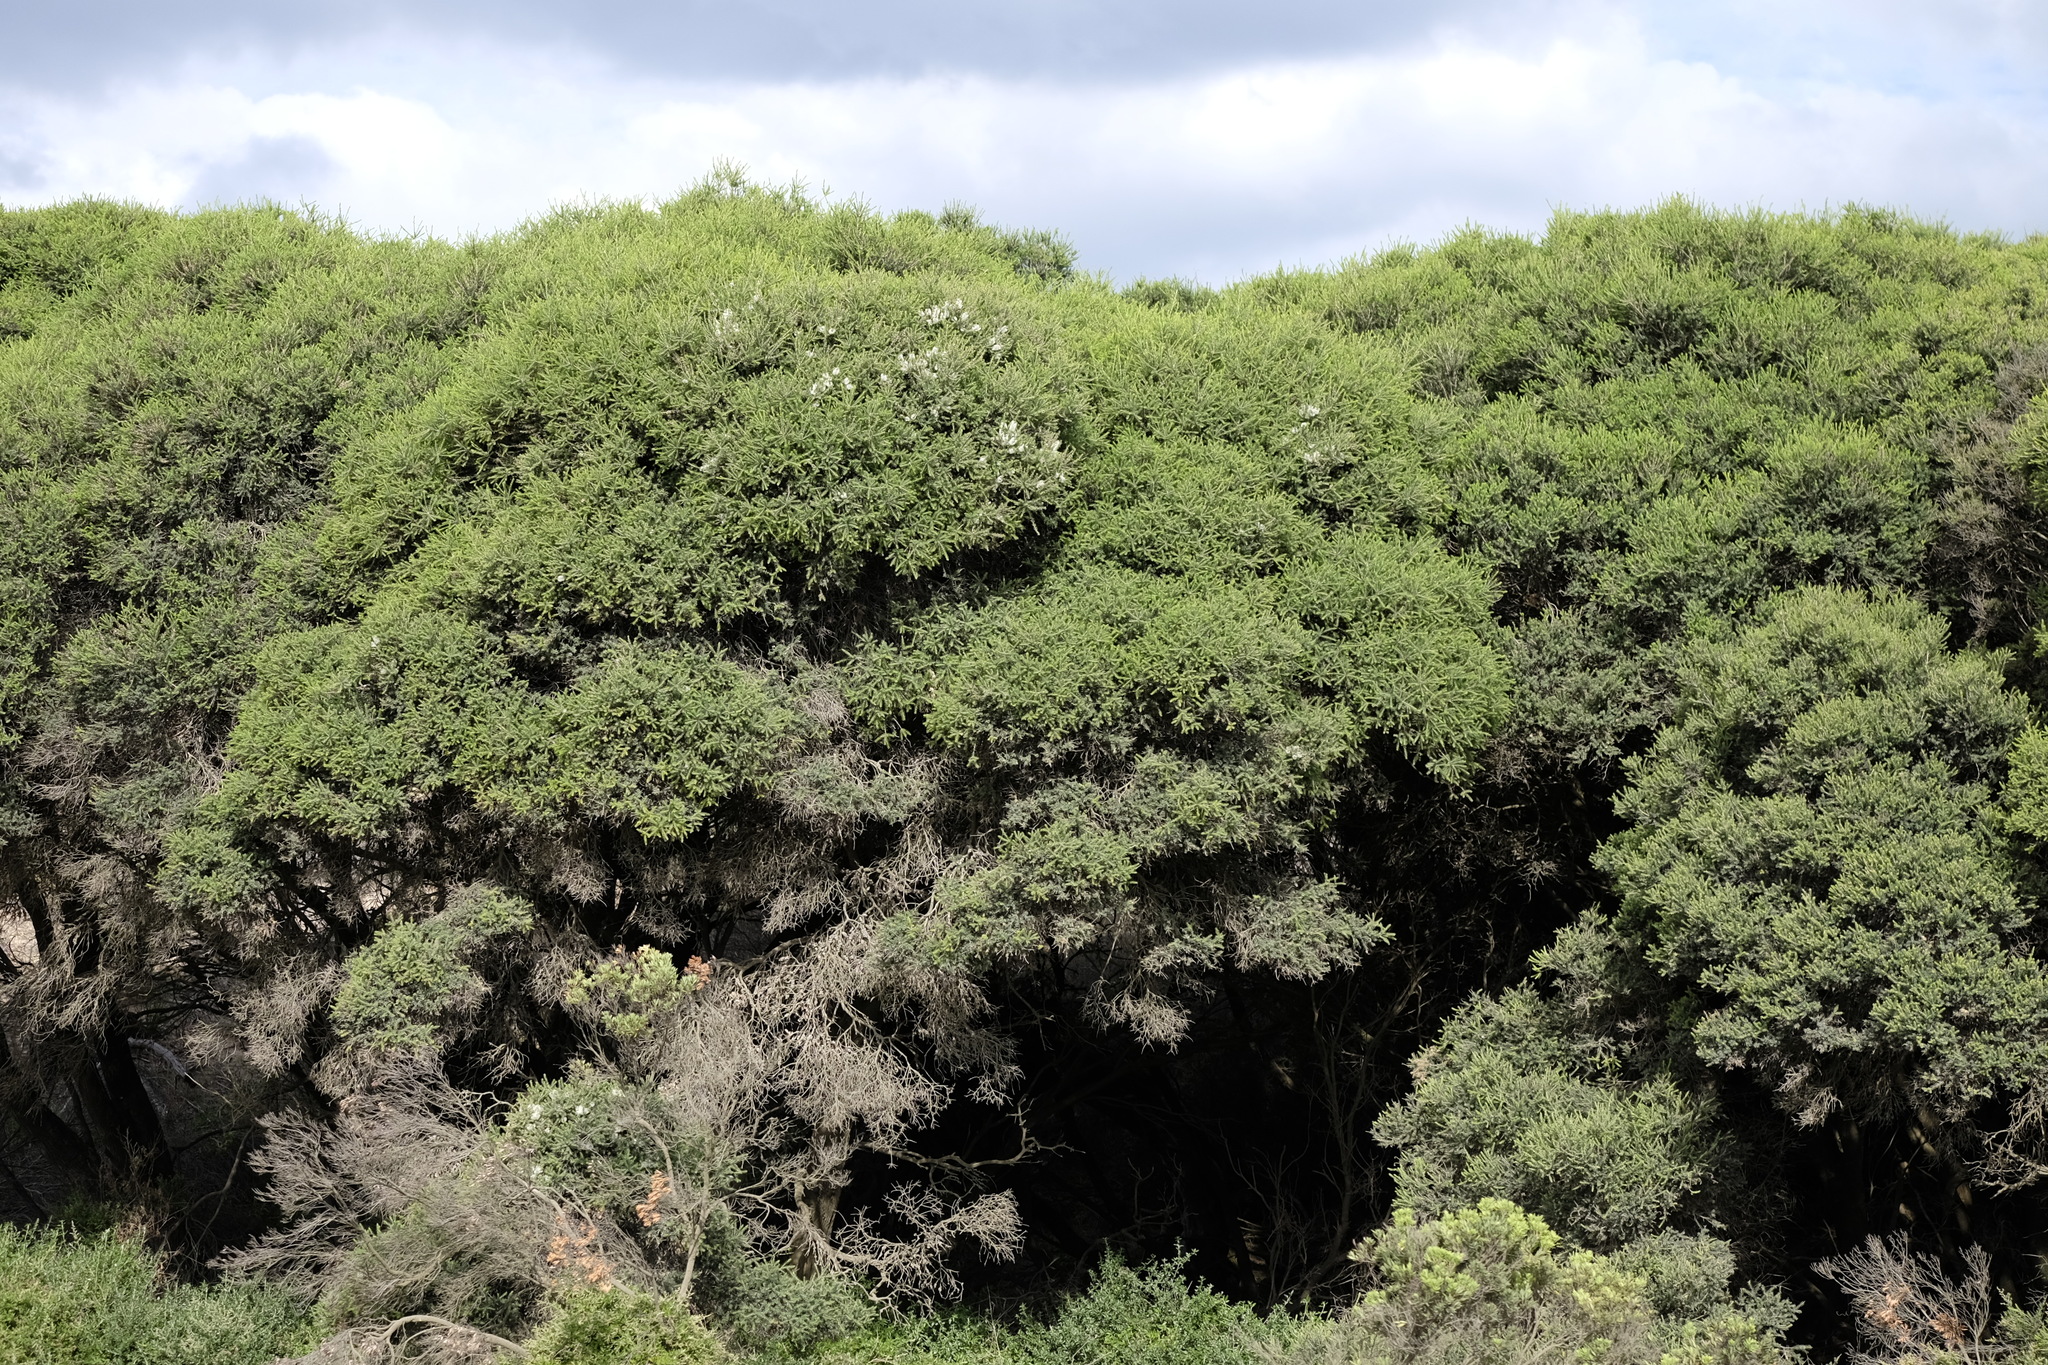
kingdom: Plantae
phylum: Tracheophyta
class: Magnoliopsida
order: Myrtales
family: Myrtaceae
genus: Melaleuca
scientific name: Melaleuca lanceolata
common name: Rottnest island teatree
